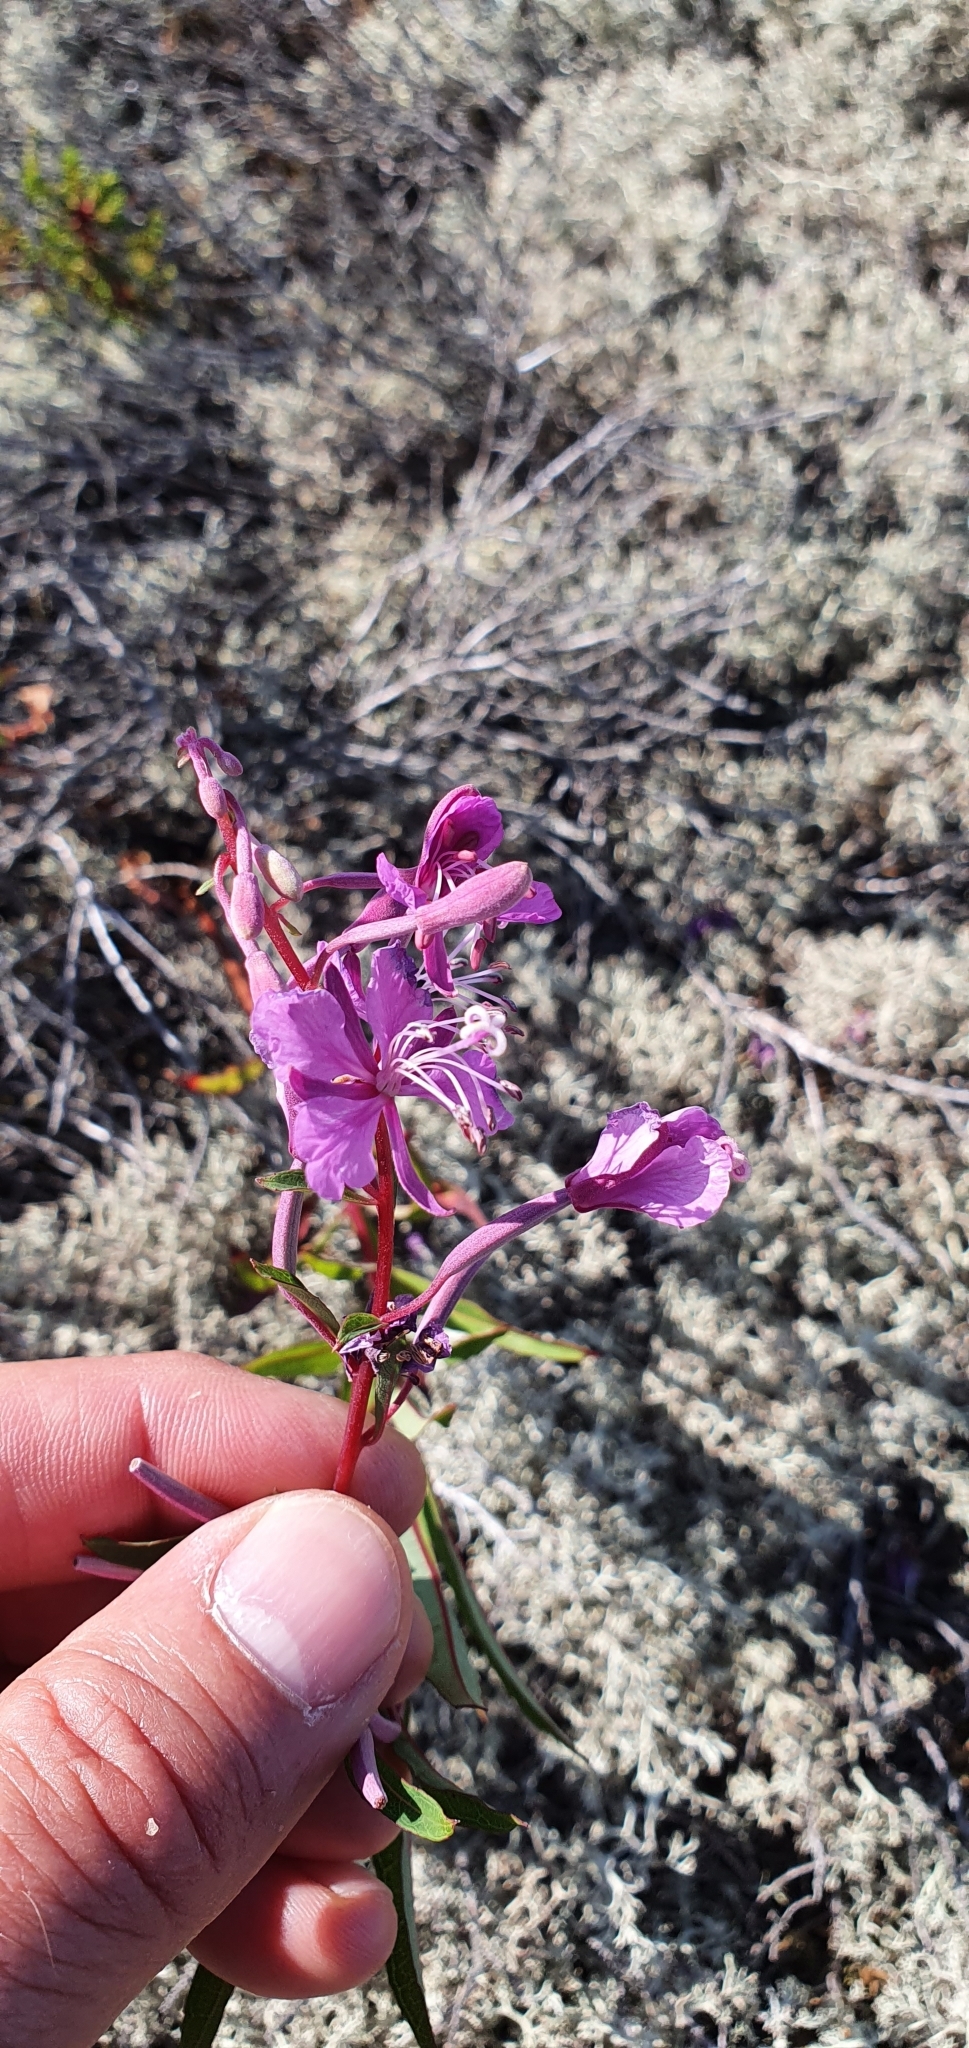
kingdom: Plantae
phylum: Tracheophyta
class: Magnoliopsida
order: Myrtales
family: Onagraceae
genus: Chamaenerion
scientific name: Chamaenerion angustifolium
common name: Fireweed
